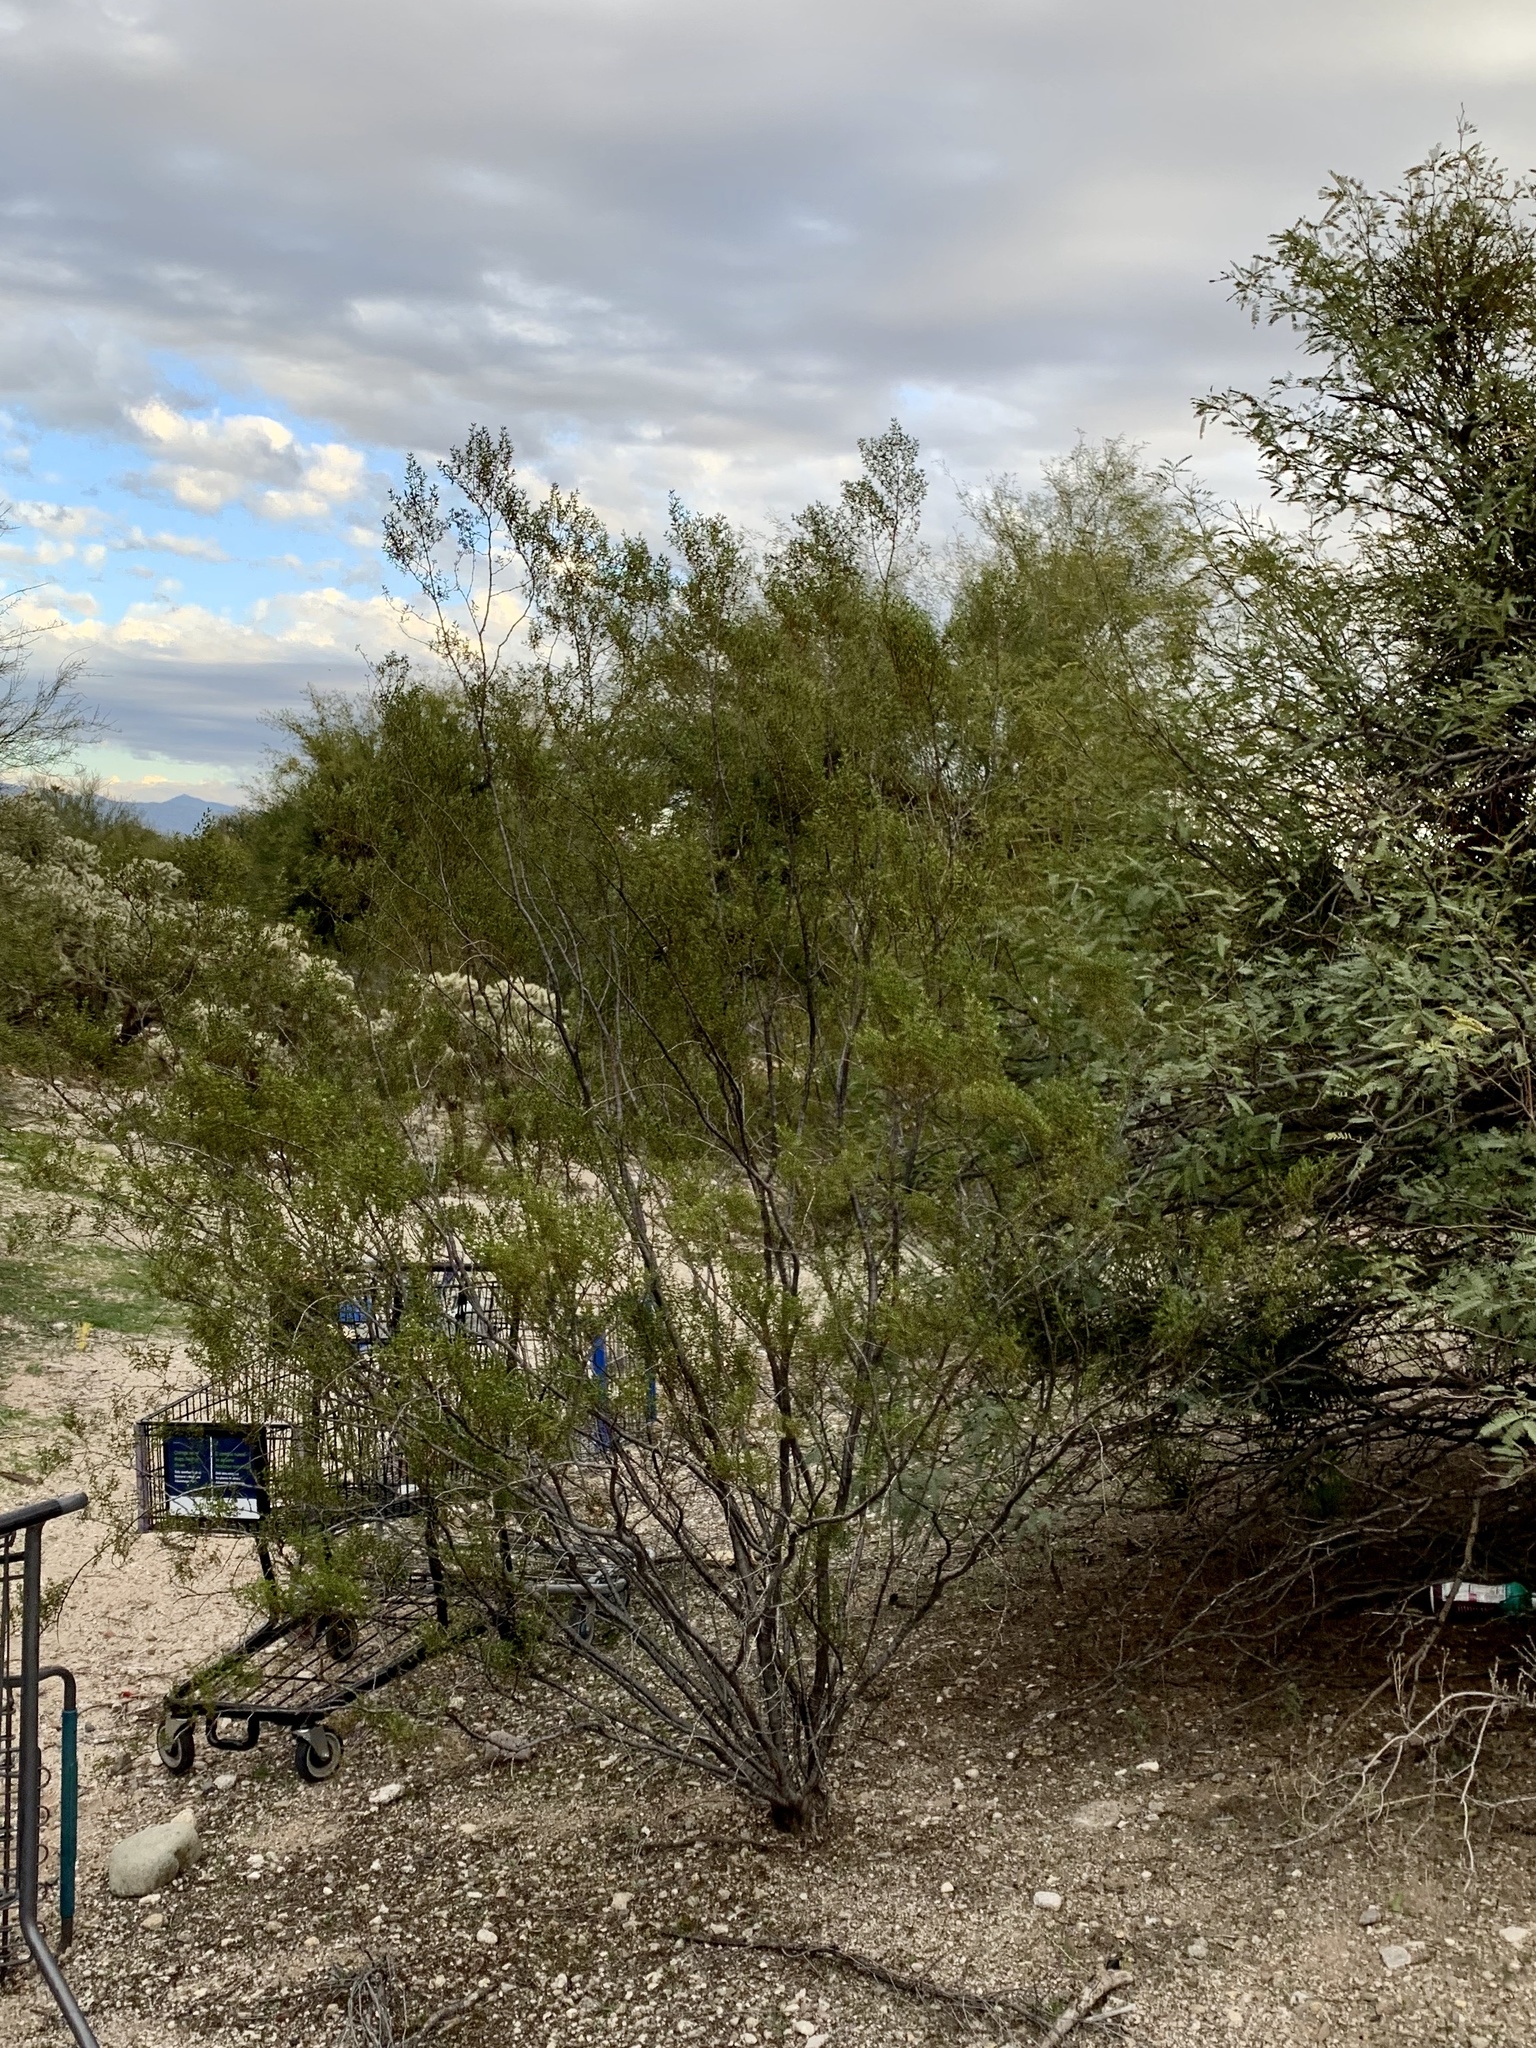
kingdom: Plantae
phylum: Tracheophyta
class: Magnoliopsida
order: Zygophyllales
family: Zygophyllaceae
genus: Larrea
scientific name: Larrea tridentata
